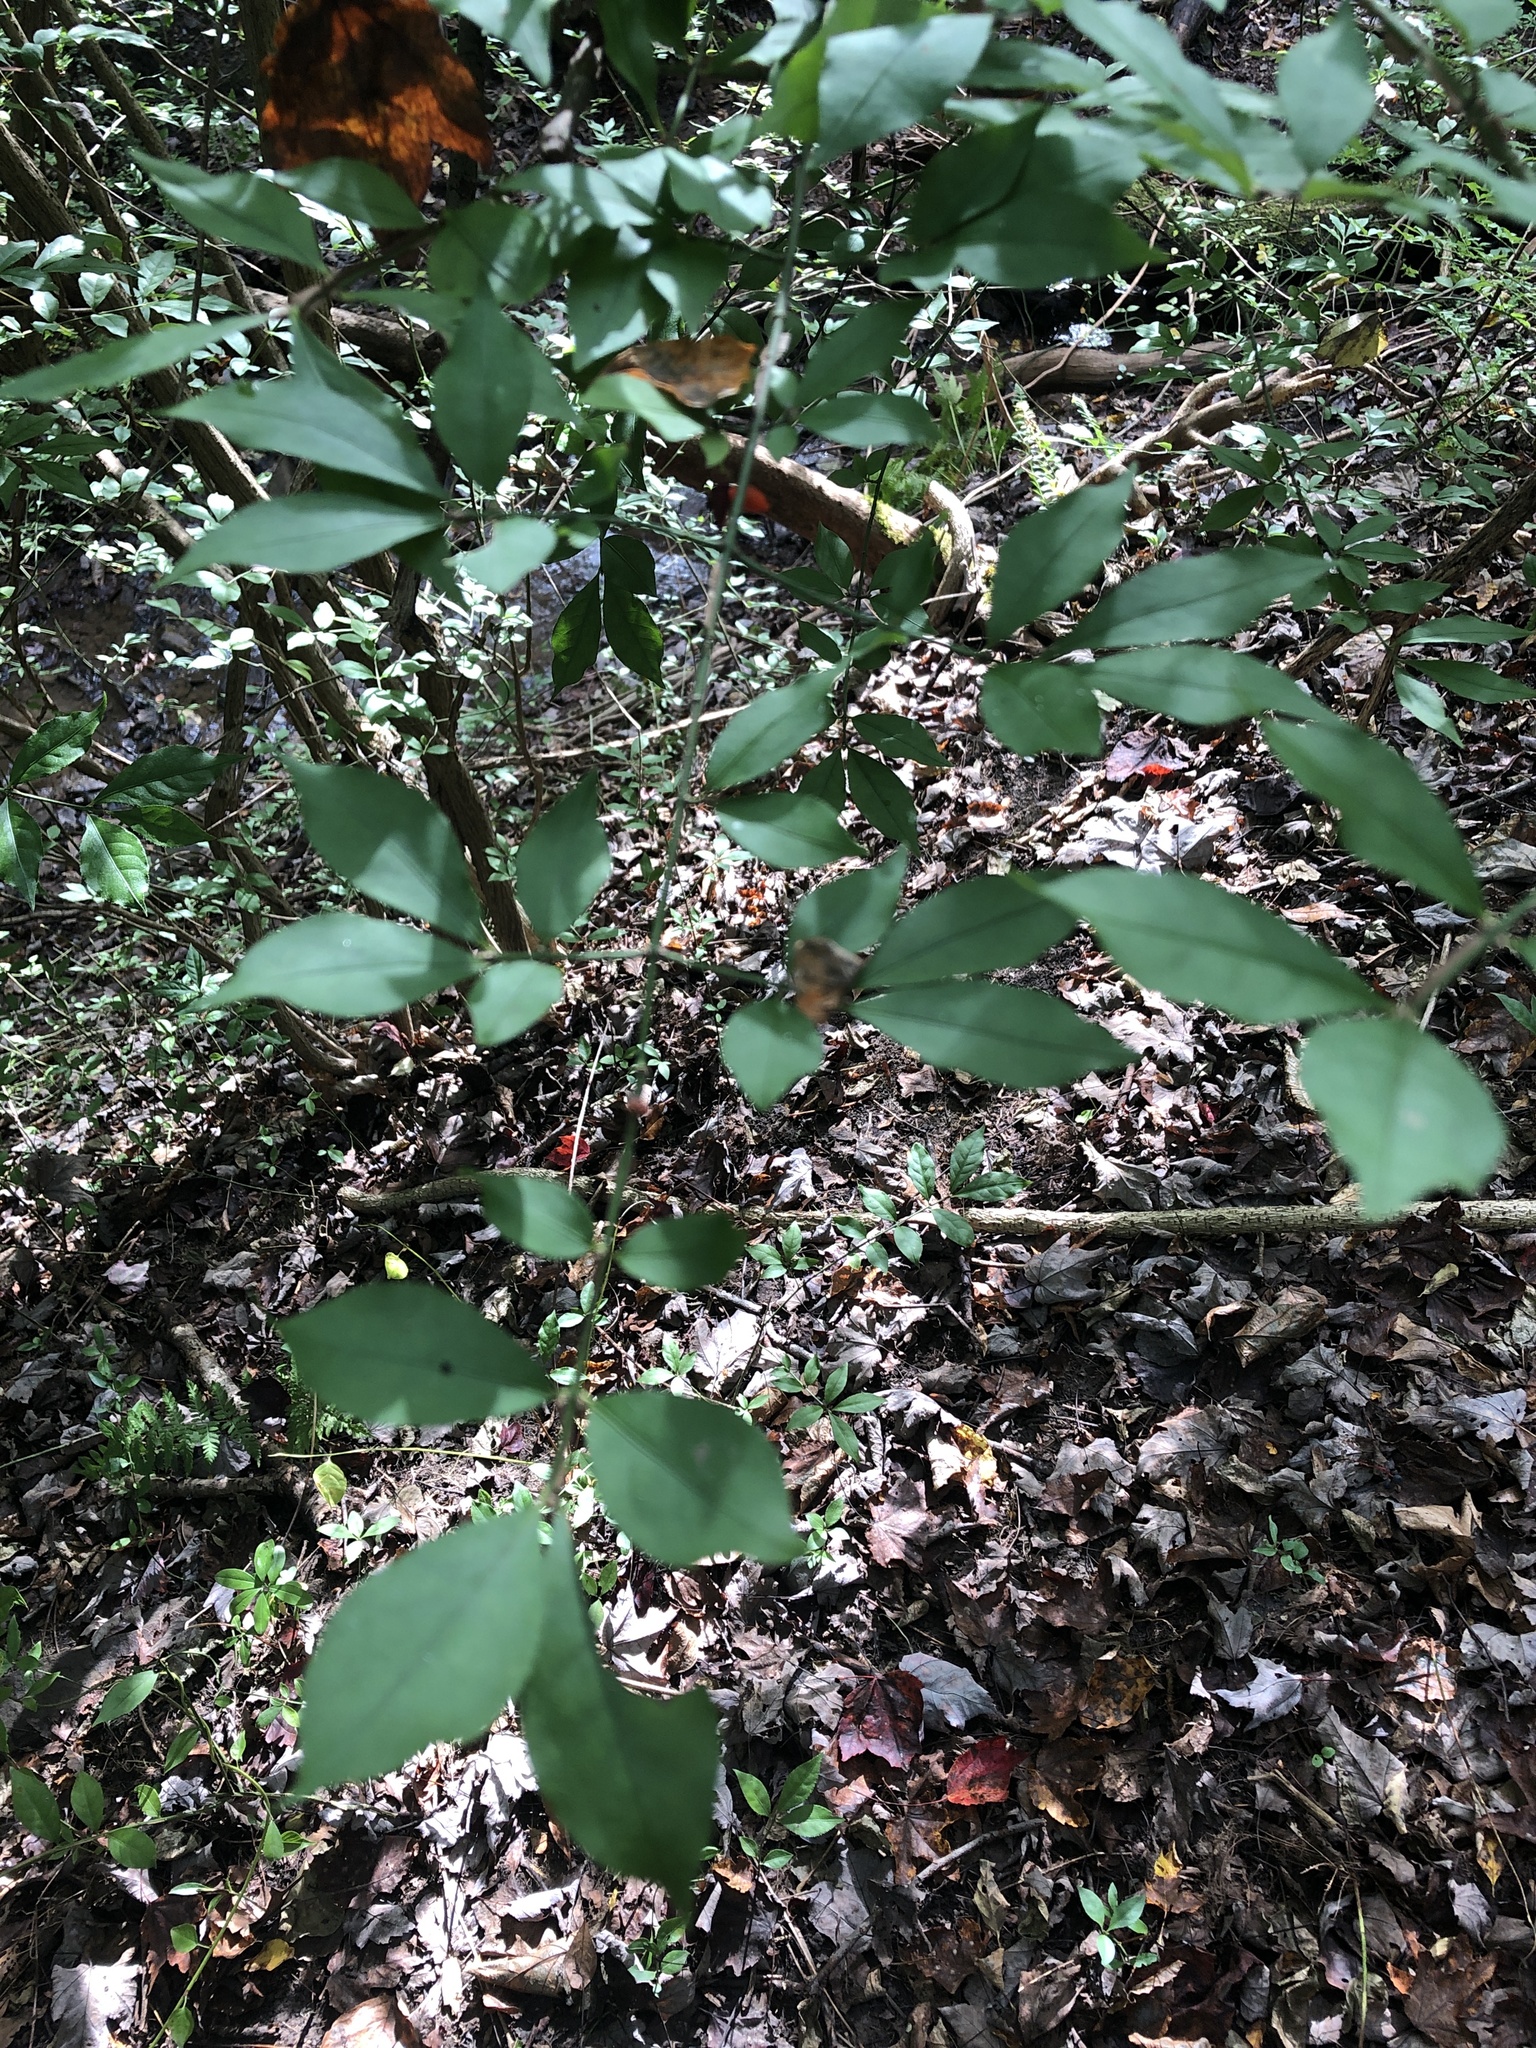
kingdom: Plantae
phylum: Tracheophyta
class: Magnoliopsida
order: Celastrales
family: Celastraceae
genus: Euonymus
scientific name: Euonymus alatus
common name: Winged euonymus
